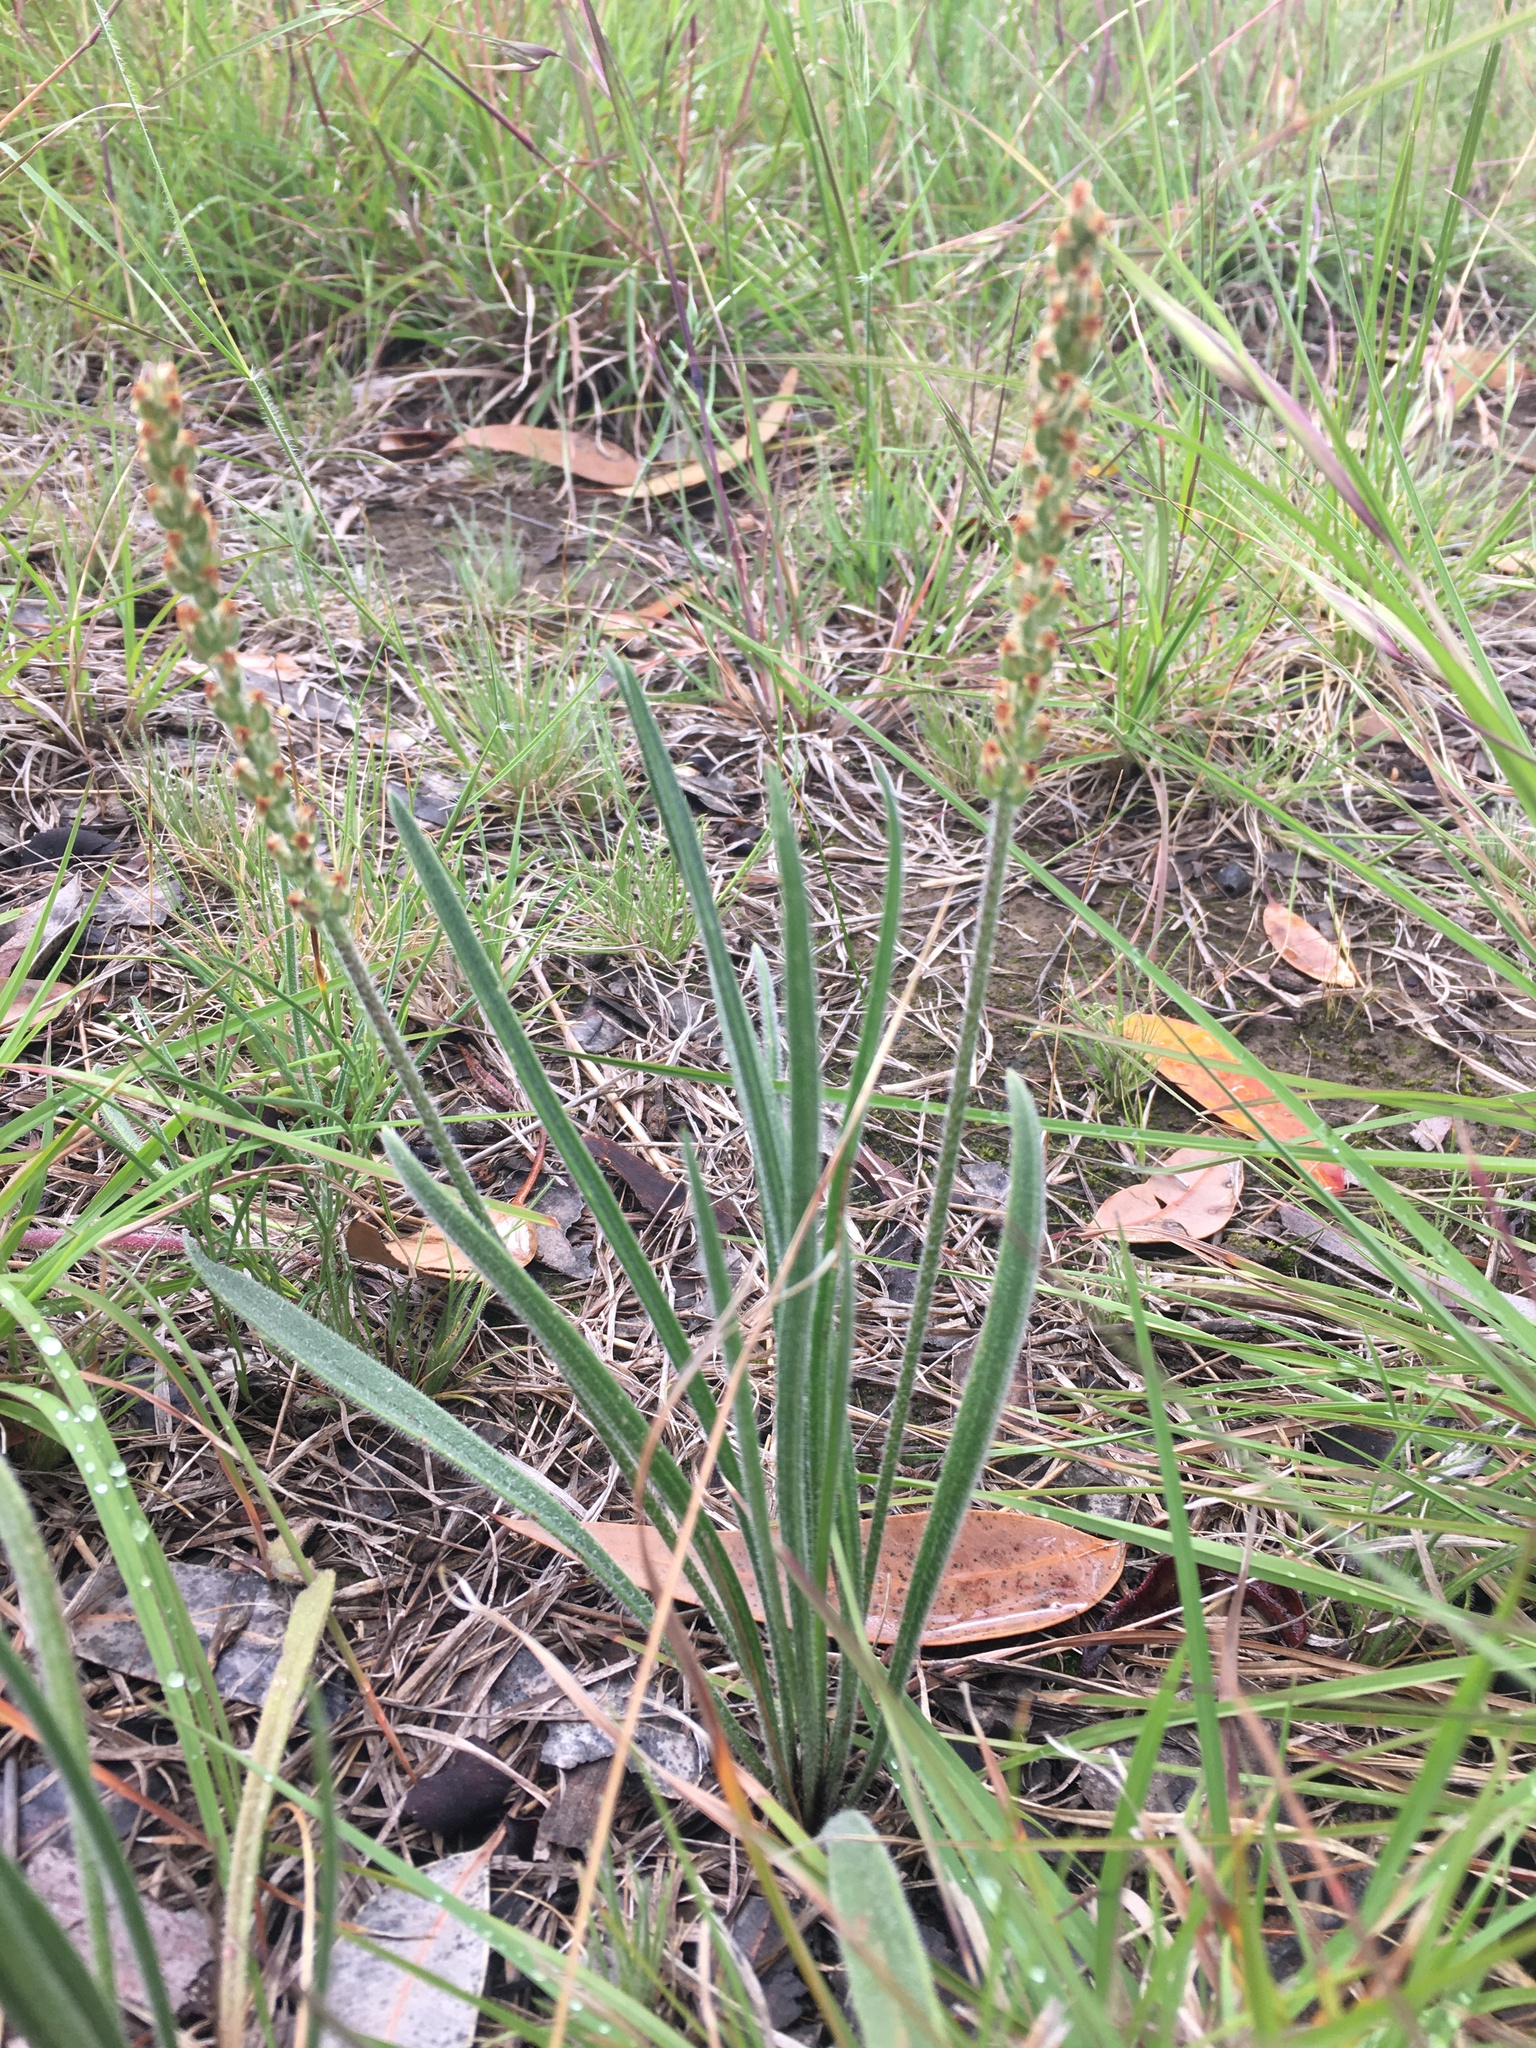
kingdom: Plantae
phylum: Tracheophyta
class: Magnoliopsida
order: Lamiales
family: Plantaginaceae
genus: Plantago
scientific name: Plantago gaudichaudii
